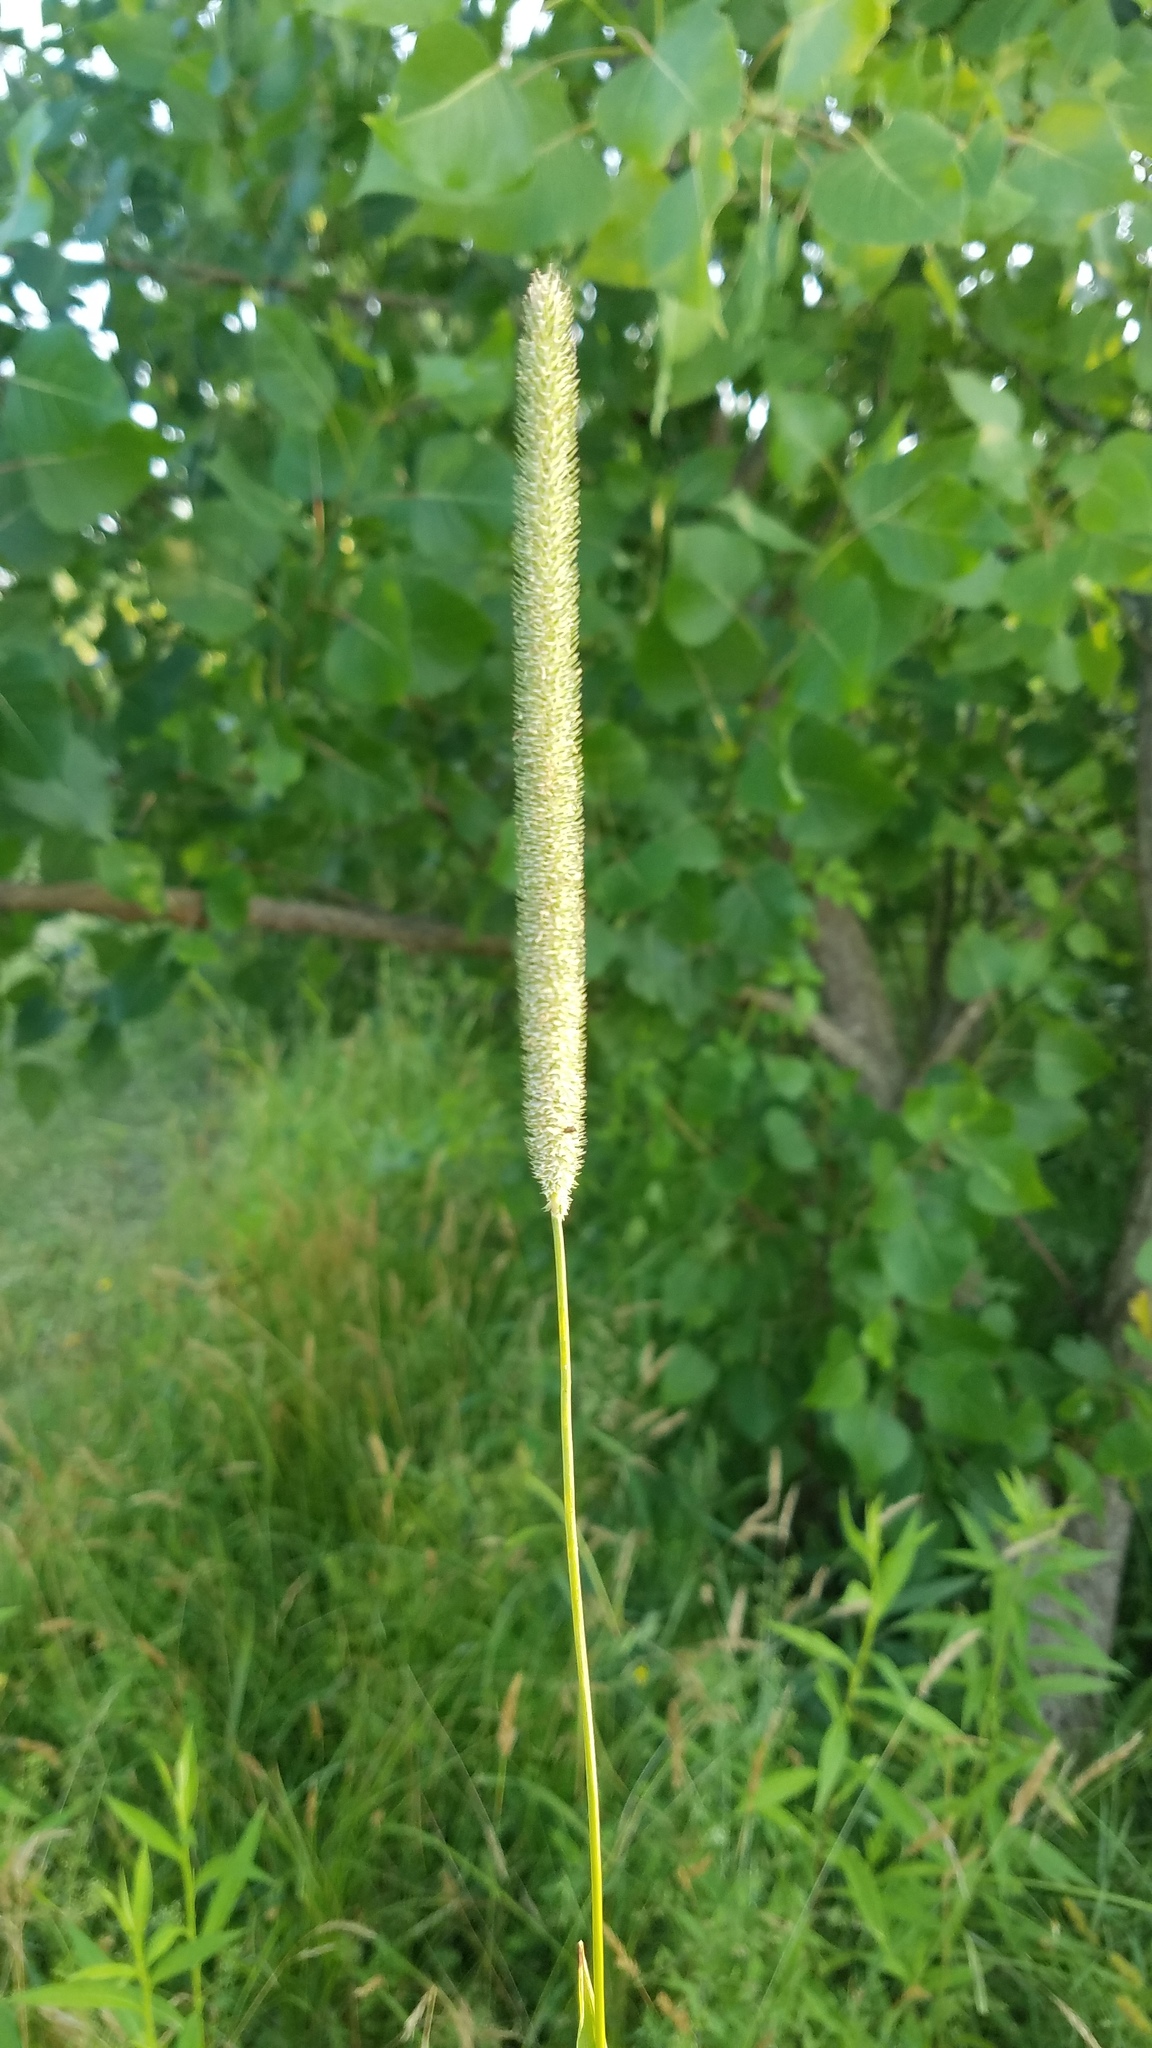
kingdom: Plantae
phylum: Tracheophyta
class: Liliopsida
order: Poales
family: Poaceae
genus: Phleum
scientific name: Phleum pratense
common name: Timothy grass
